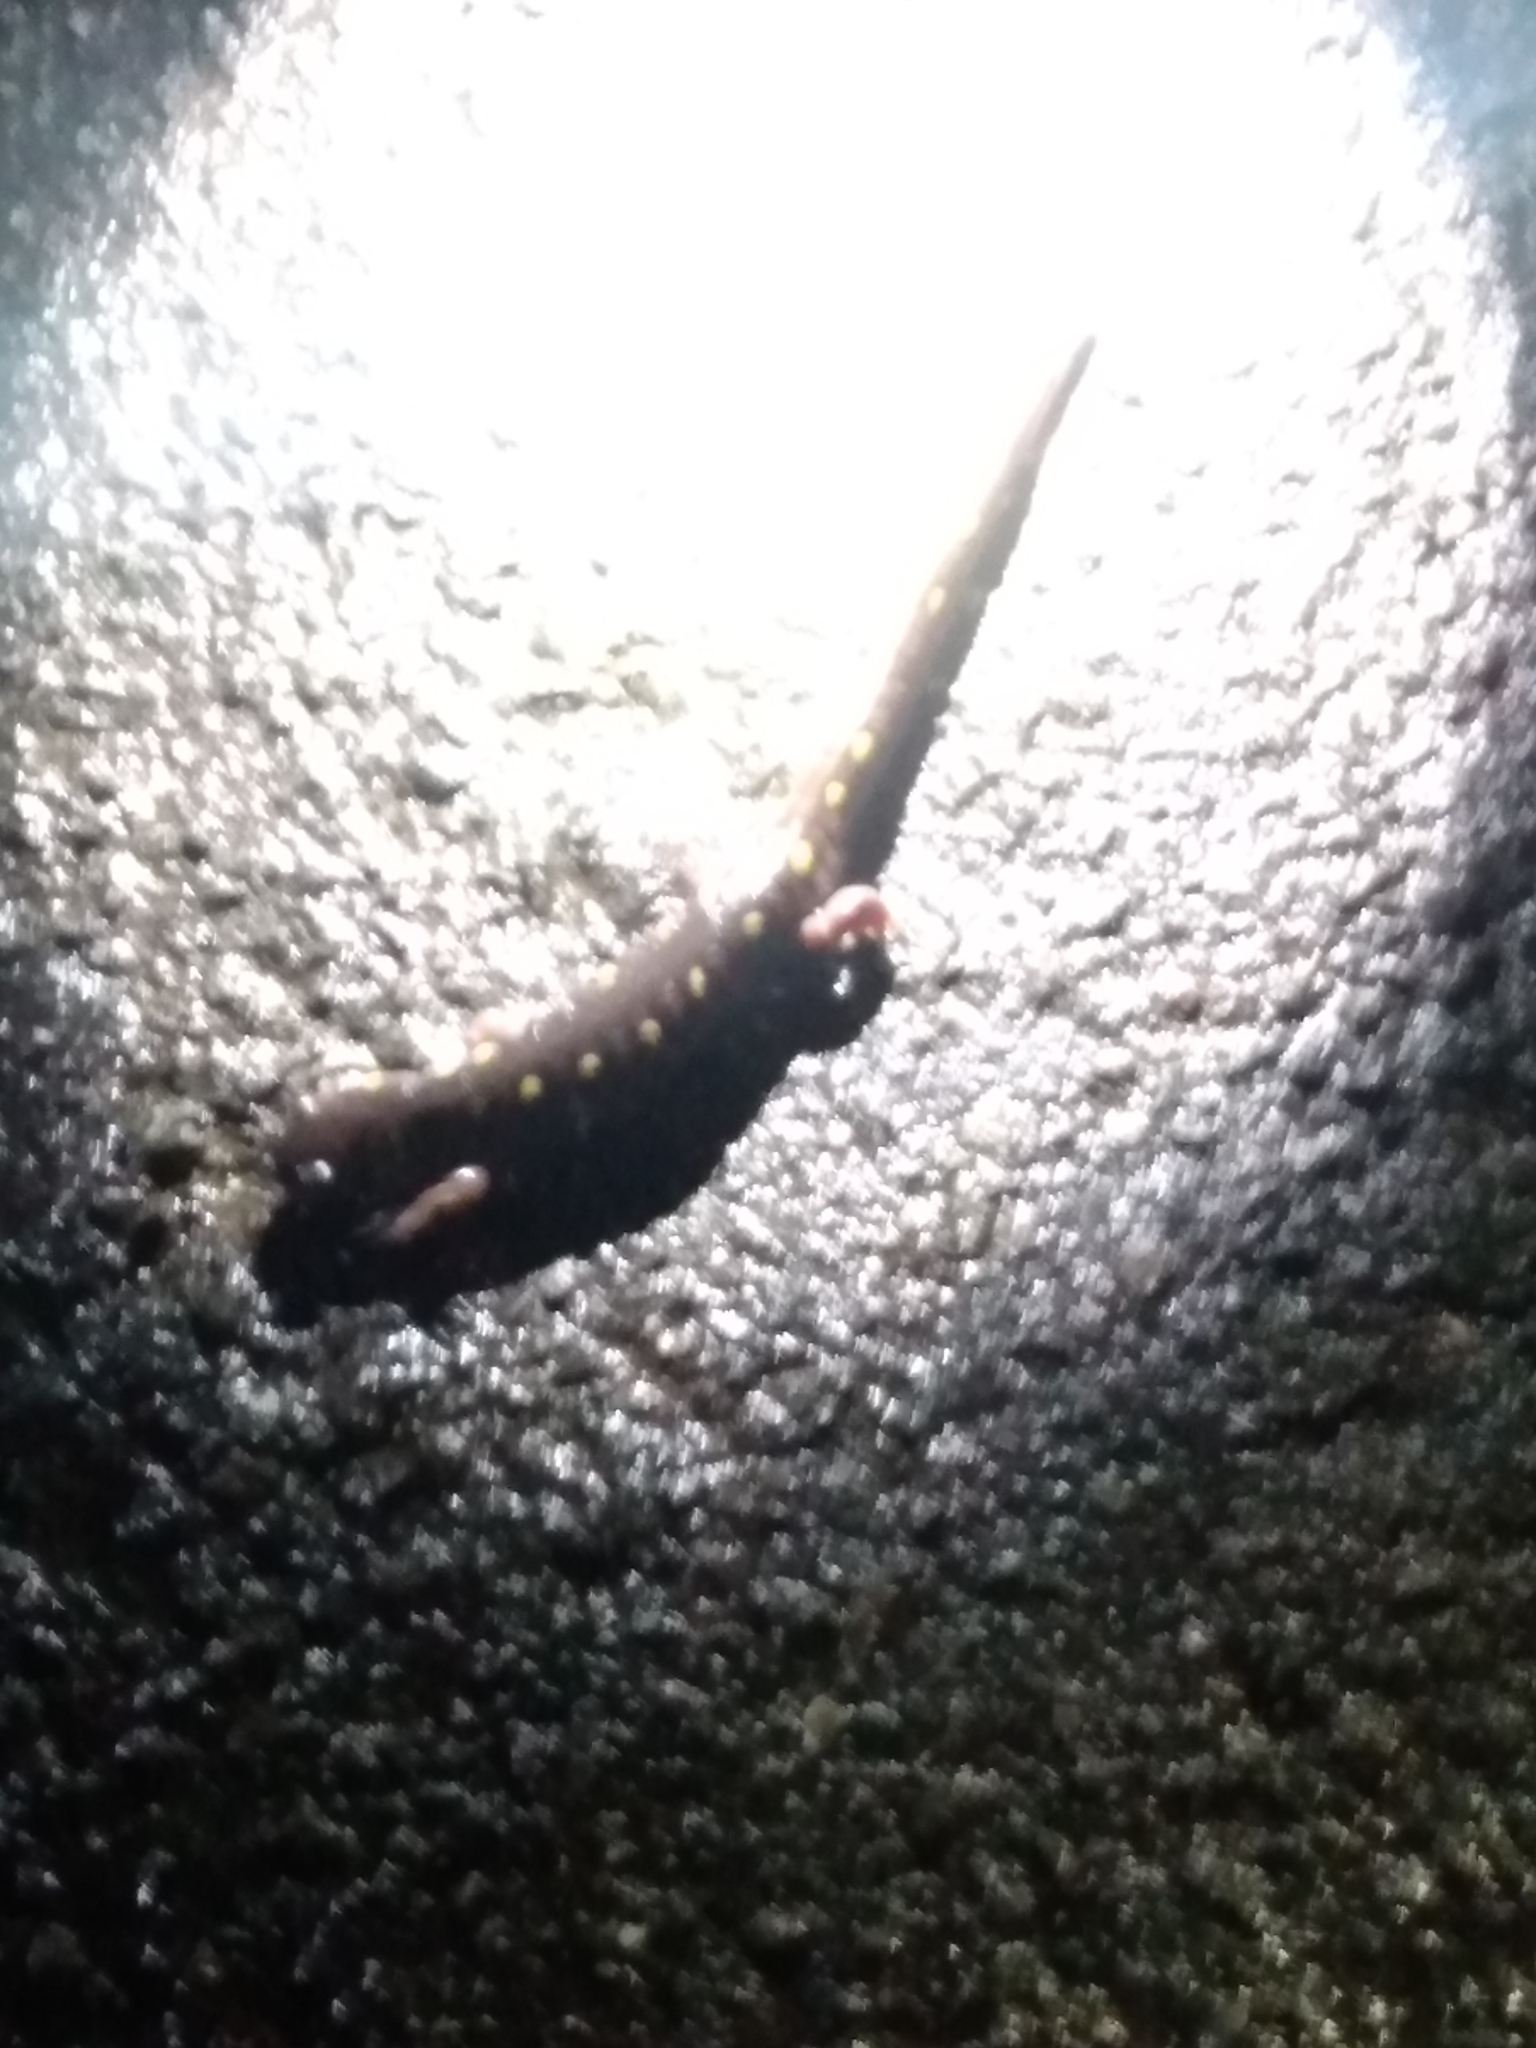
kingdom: Animalia
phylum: Chordata
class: Amphibia
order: Caudata
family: Ambystomatidae
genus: Ambystoma
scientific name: Ambystoma maculatum
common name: Spotted salamander
